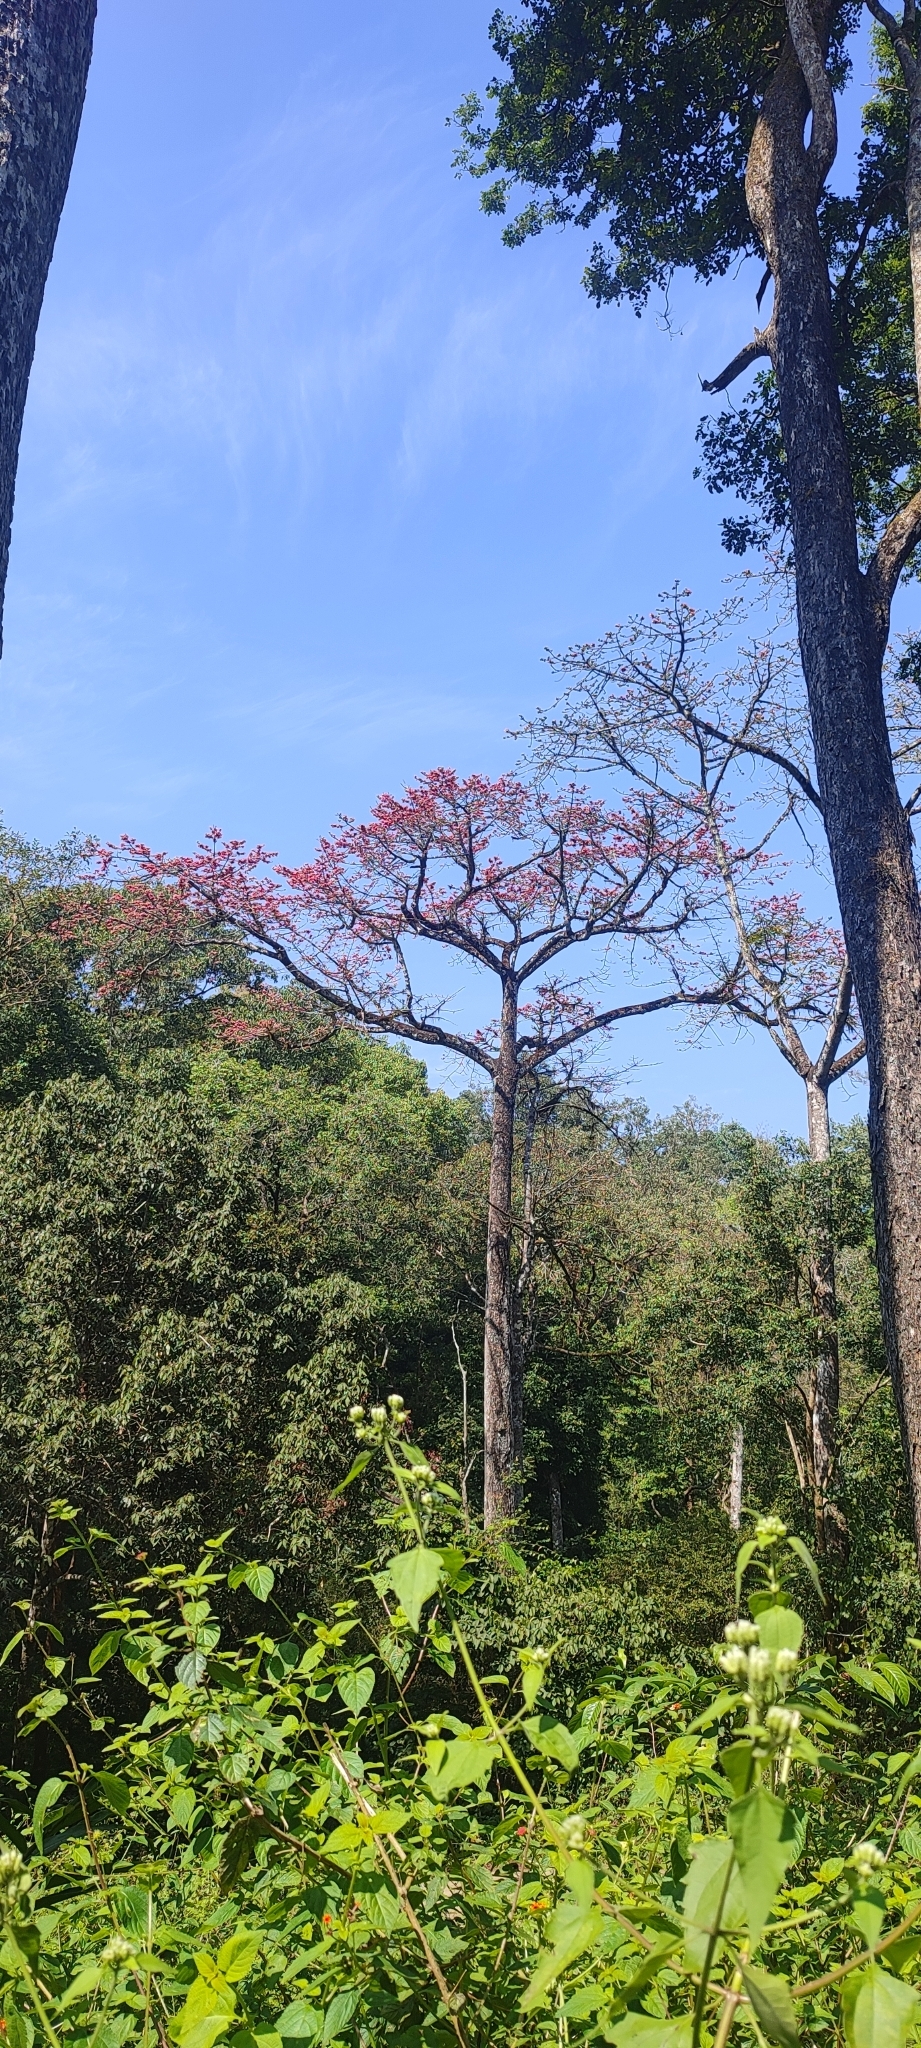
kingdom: Plantae
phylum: Tracheophyta
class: Magnoliopsida
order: Malvales
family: Malvaceae
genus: Bombax
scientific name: Bombax ceiba
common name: Northern-cottonwood
